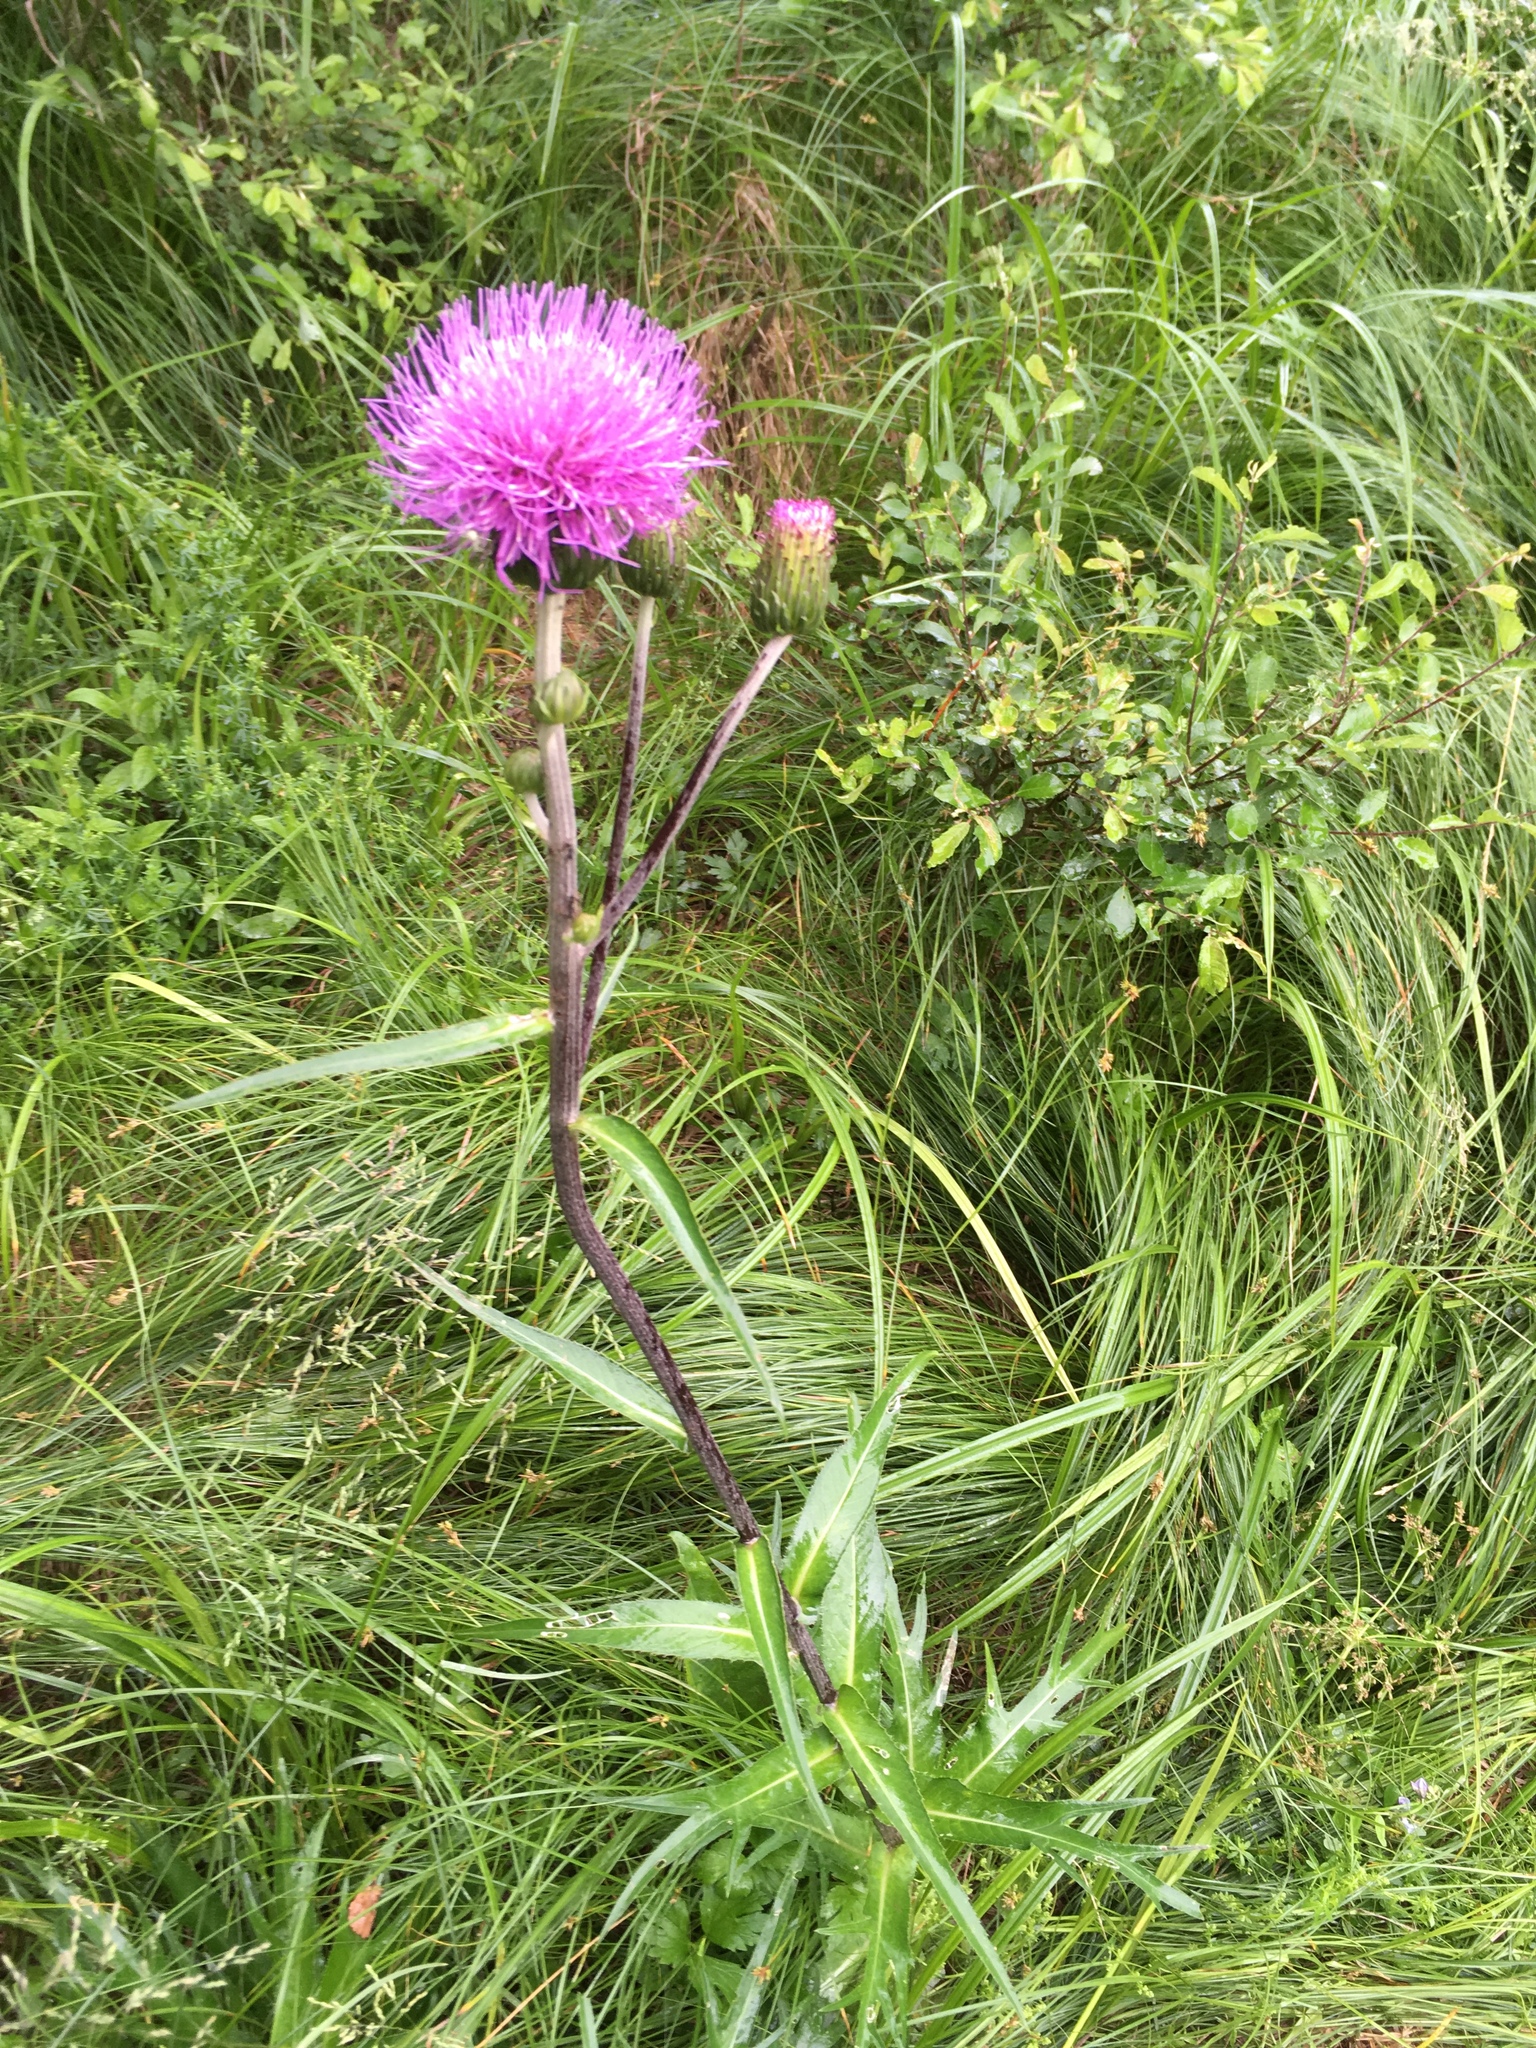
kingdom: Plantae
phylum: Tracheophyta
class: Magnoliopsida
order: Asterales
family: Asteraceae
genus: Cirsium
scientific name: Cirsium heterophyllum
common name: Melancholy thistle
